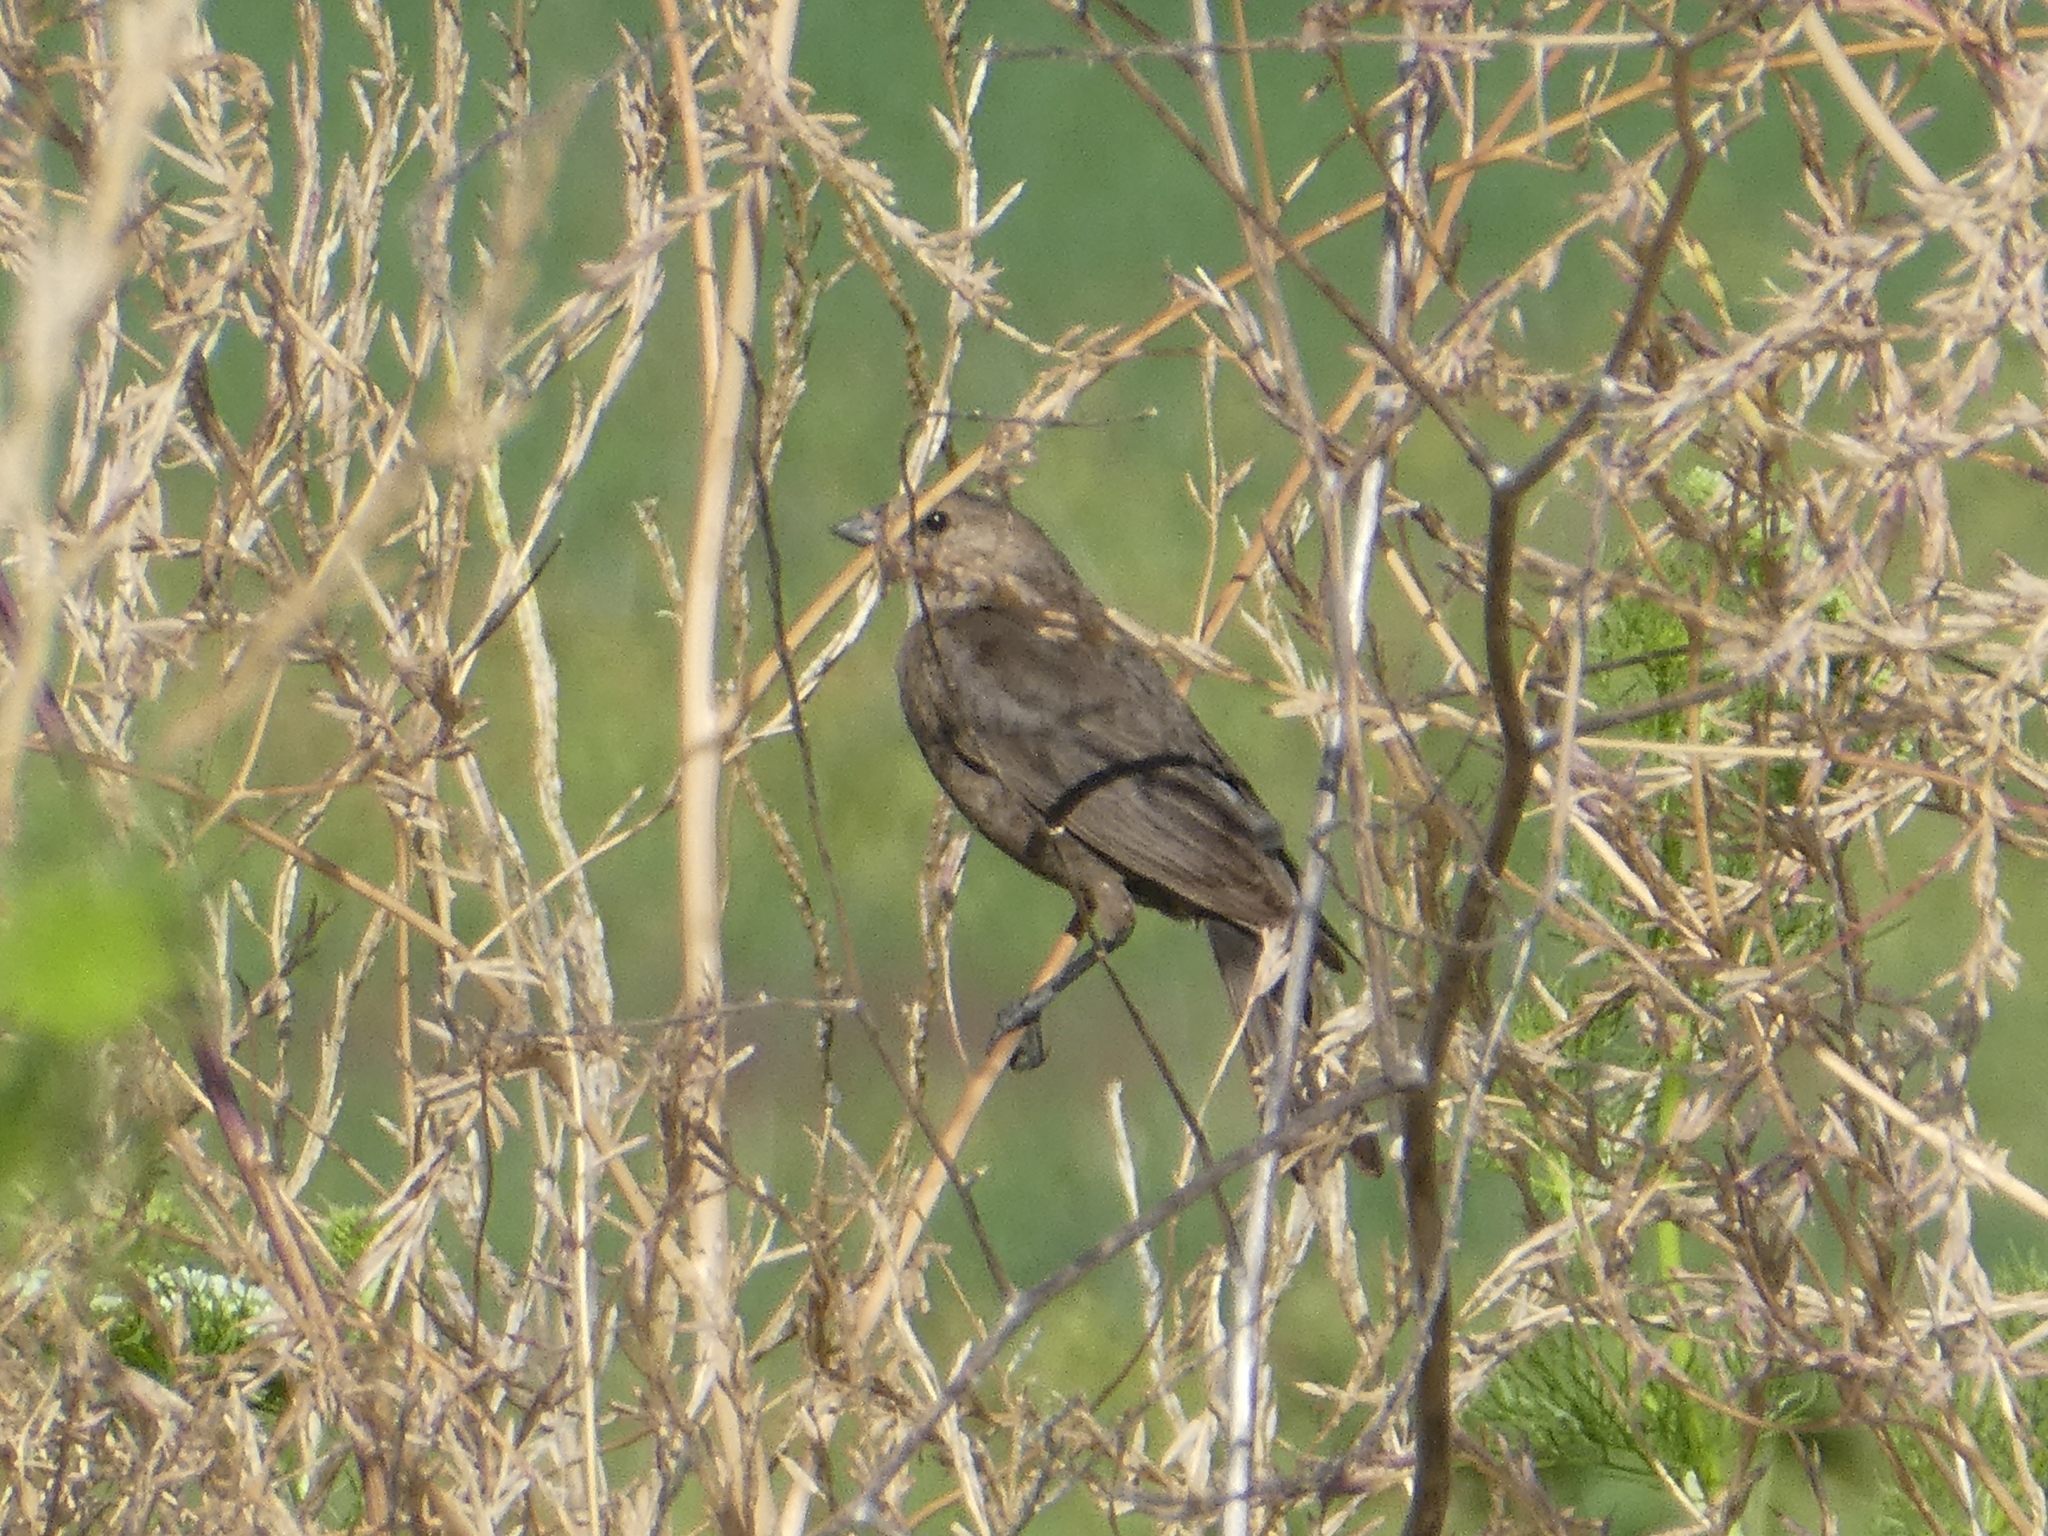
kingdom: Animalia
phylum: Chordata
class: Aves
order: Passeriformes
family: Icteridae
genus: Molothrus
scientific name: Molothrus ater
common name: Brown-headed cowbird
